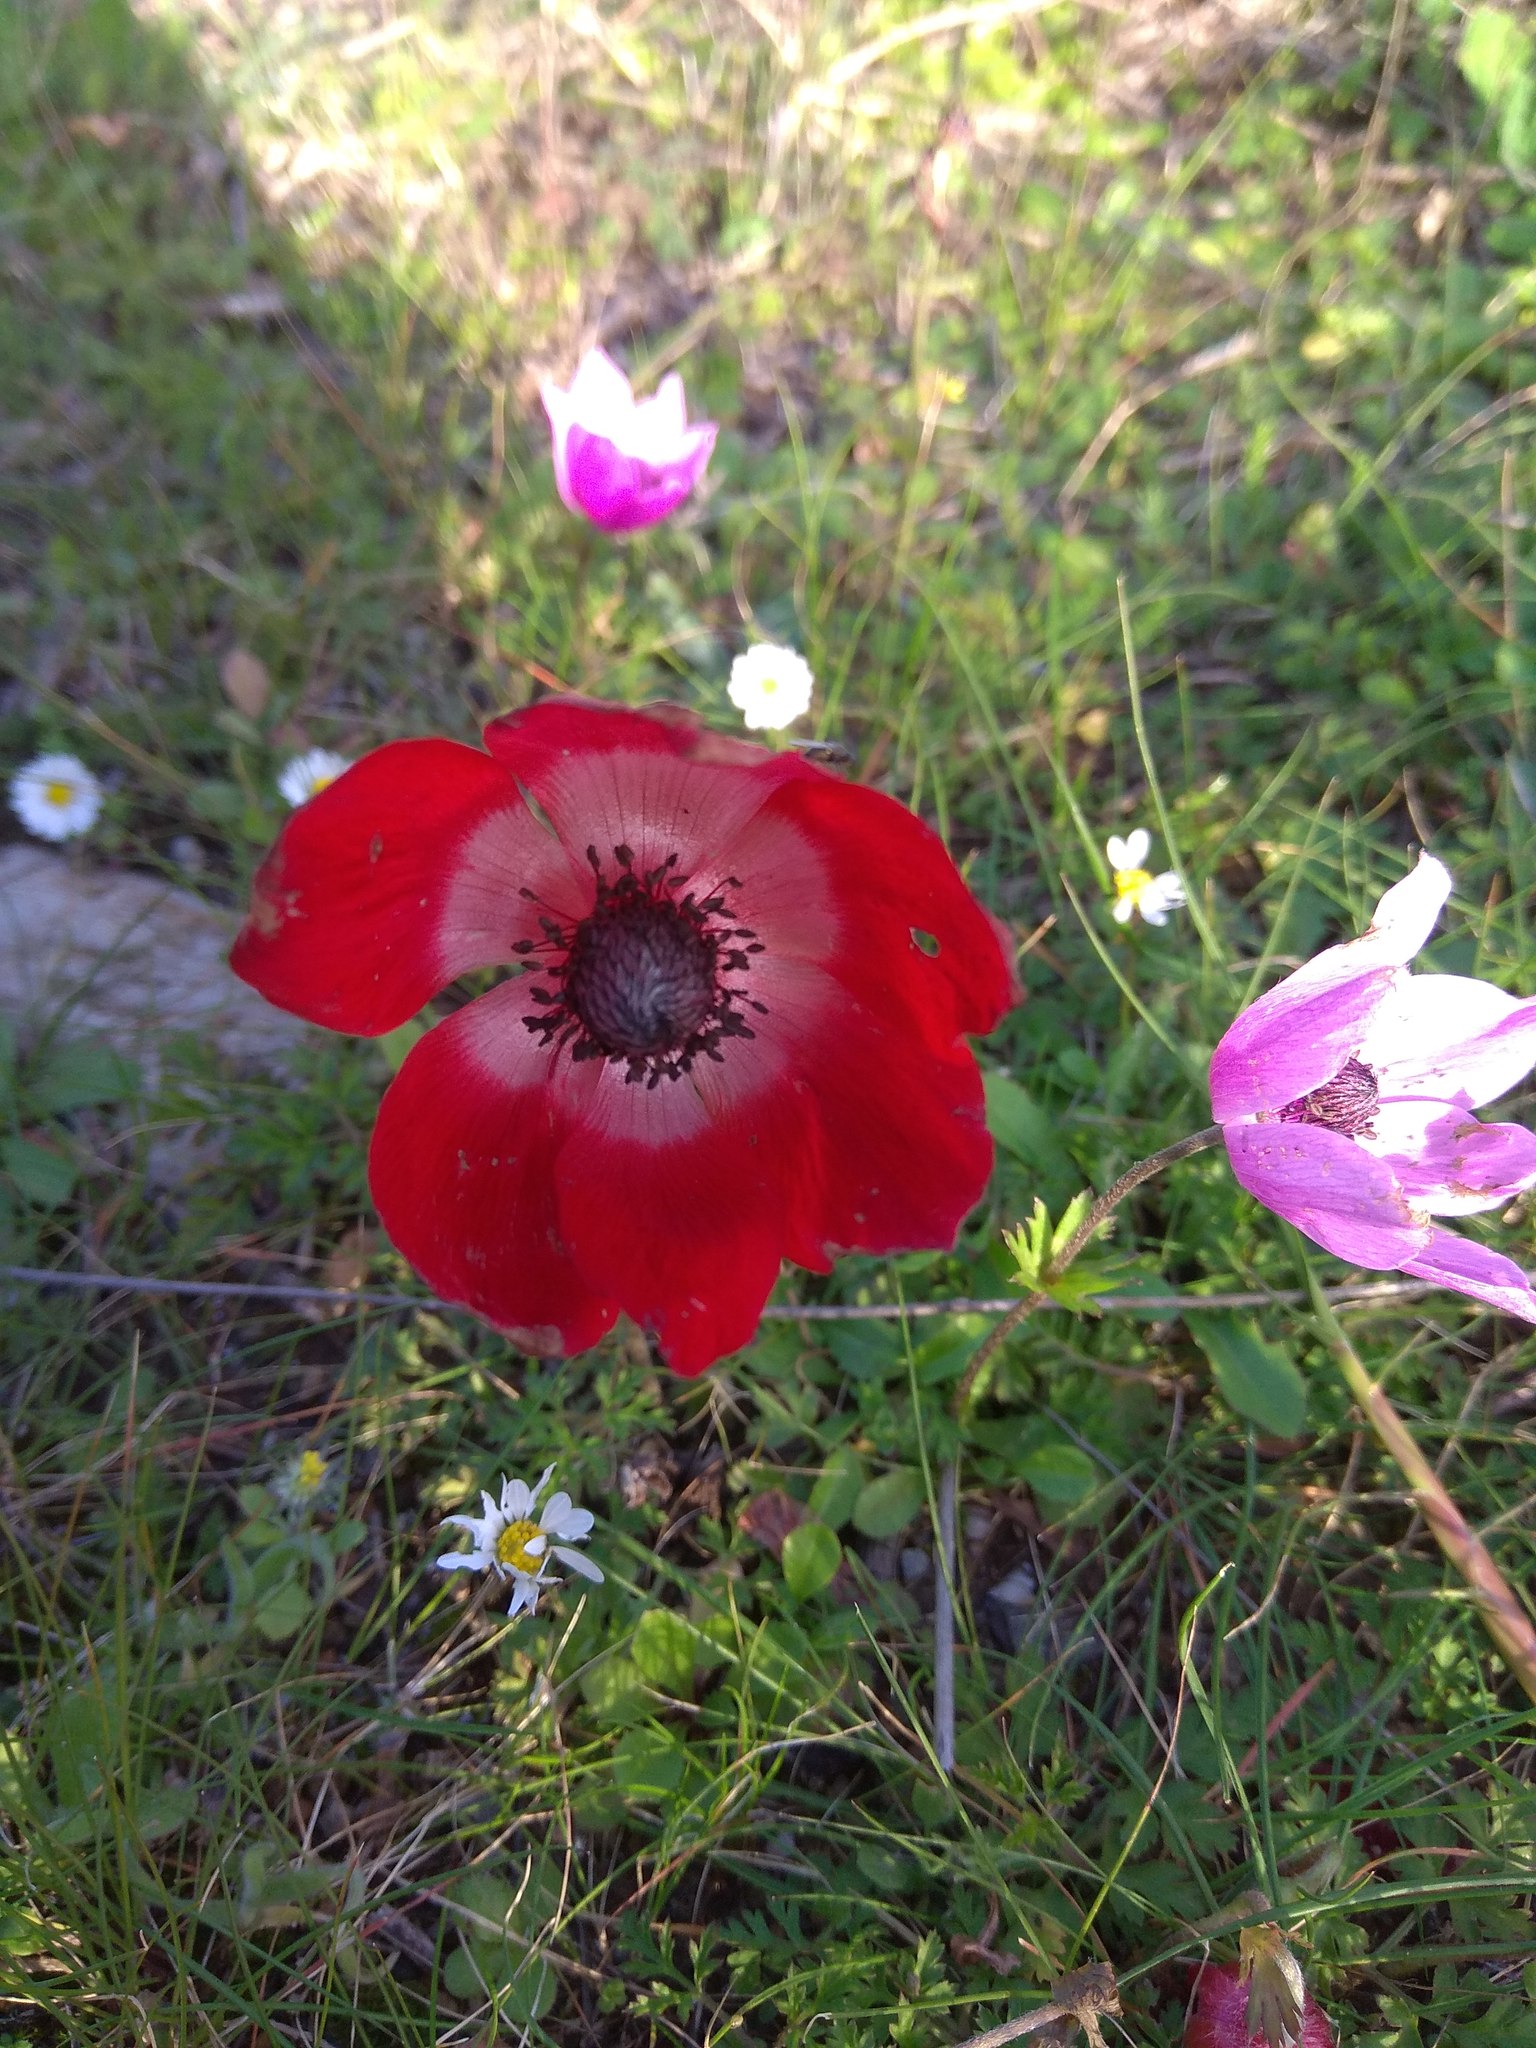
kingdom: Plantae
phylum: Tracheophyta
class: Magnoliopsida
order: Ranunculales
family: Ranunculaceae
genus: Anemone
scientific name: Anemone coronaria
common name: Poppy anemone
